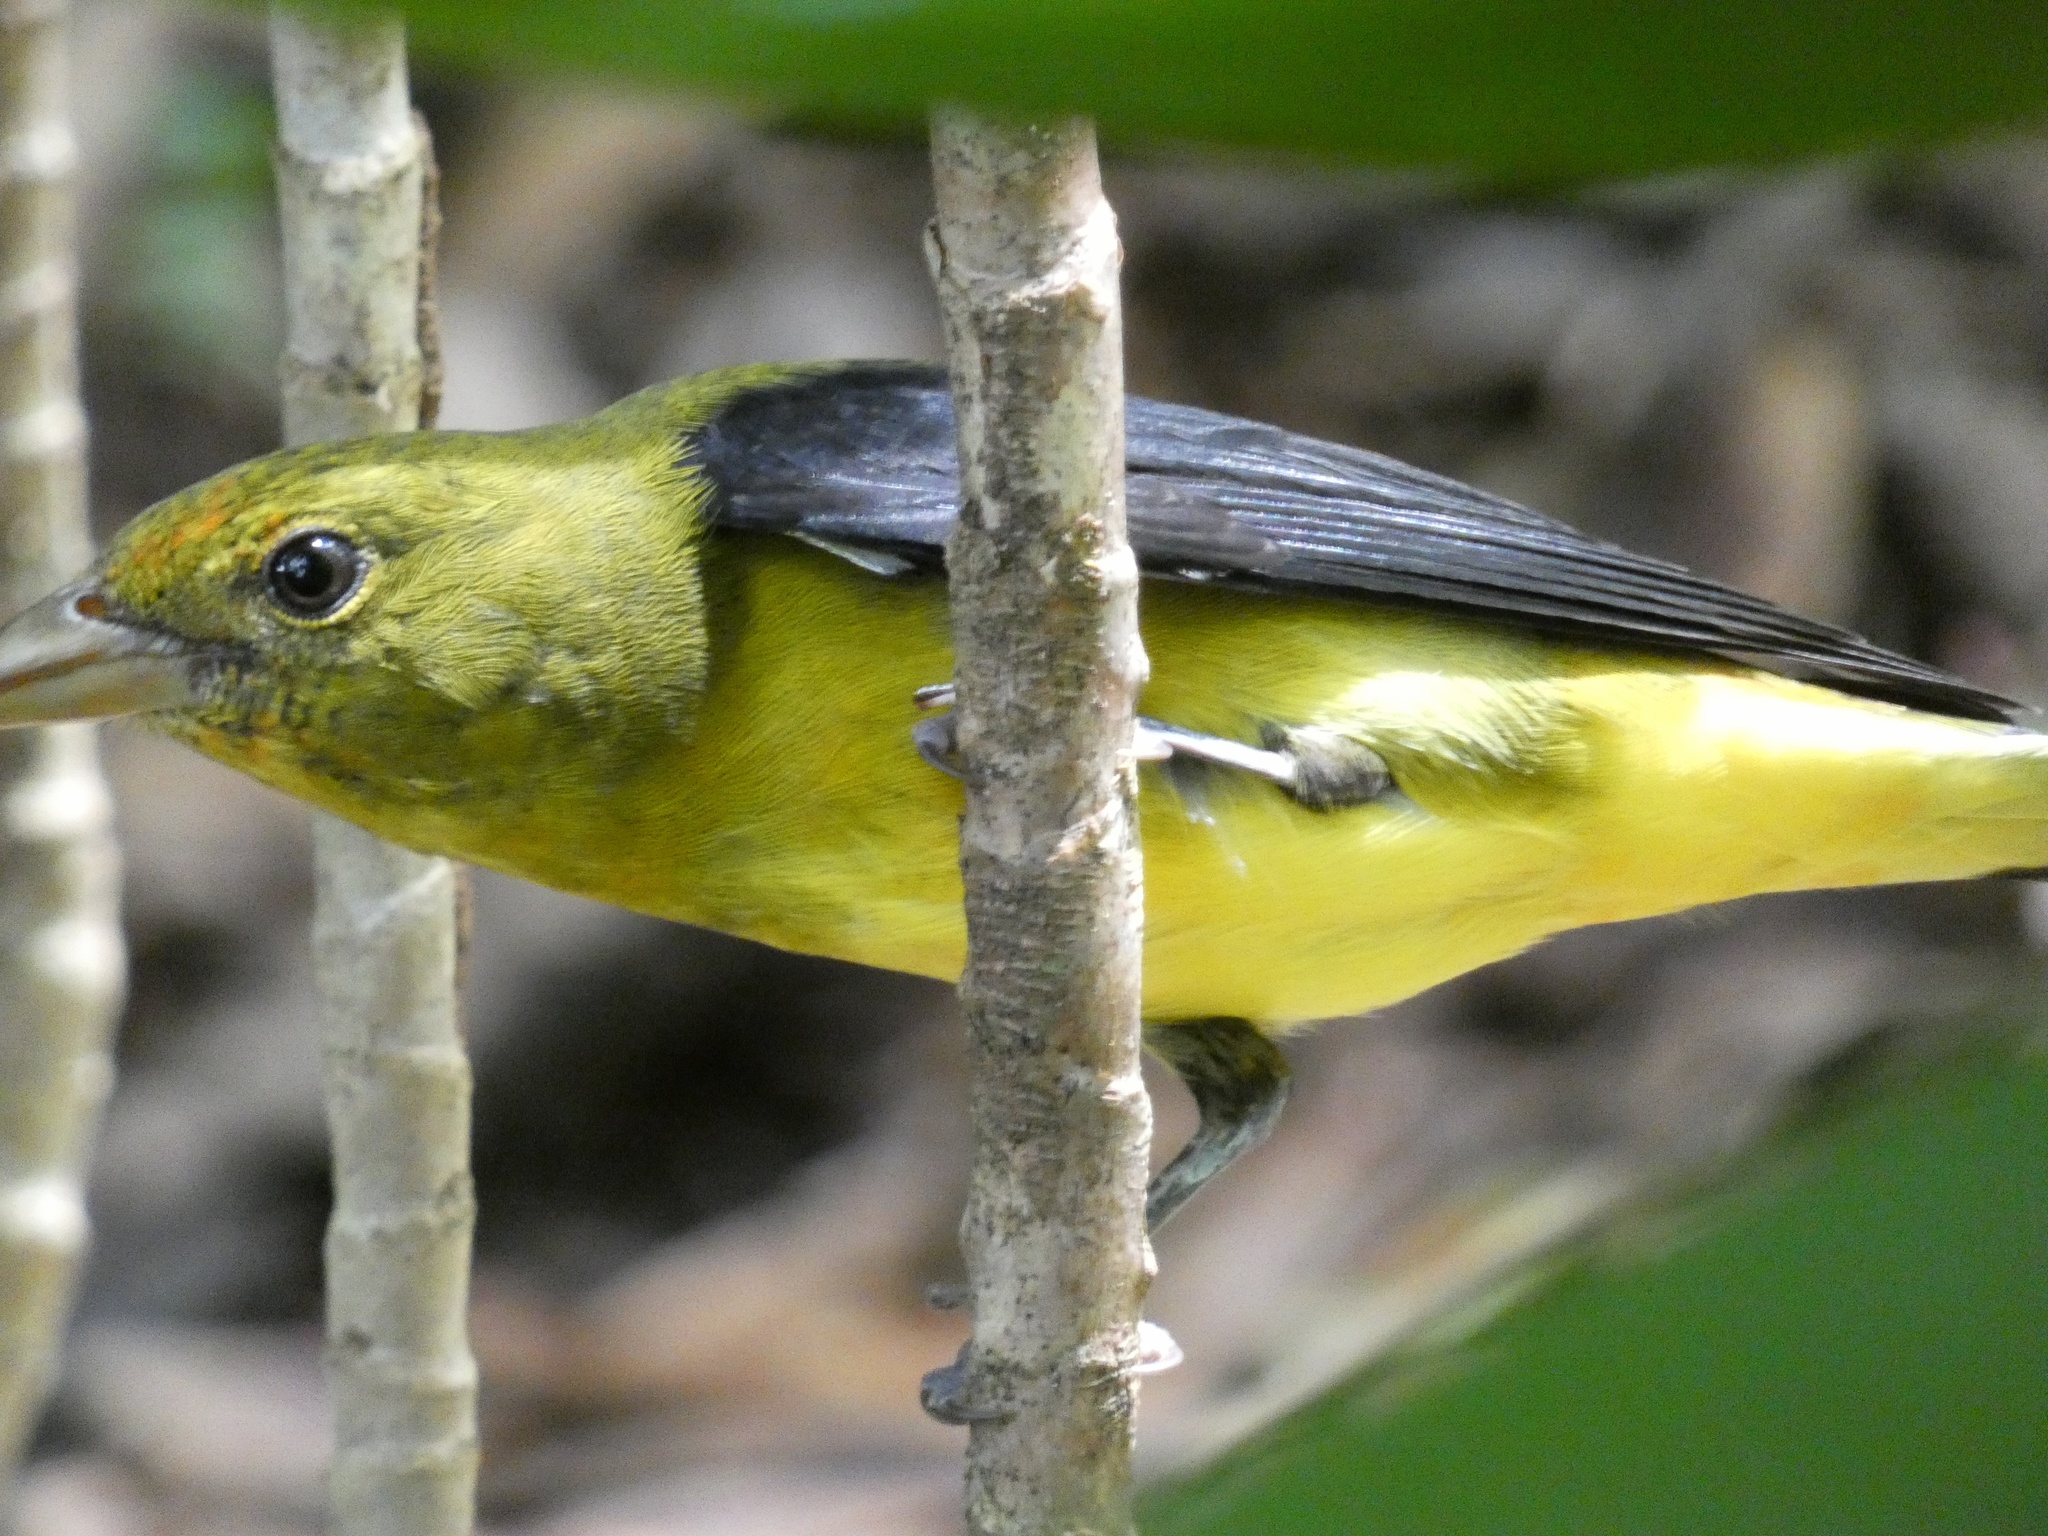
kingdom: Animalia
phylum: Chordata
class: Aves
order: Passeriformes
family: Cardinalidae
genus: Piranga
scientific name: Piranga olivacea
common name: Scarlet tanager
